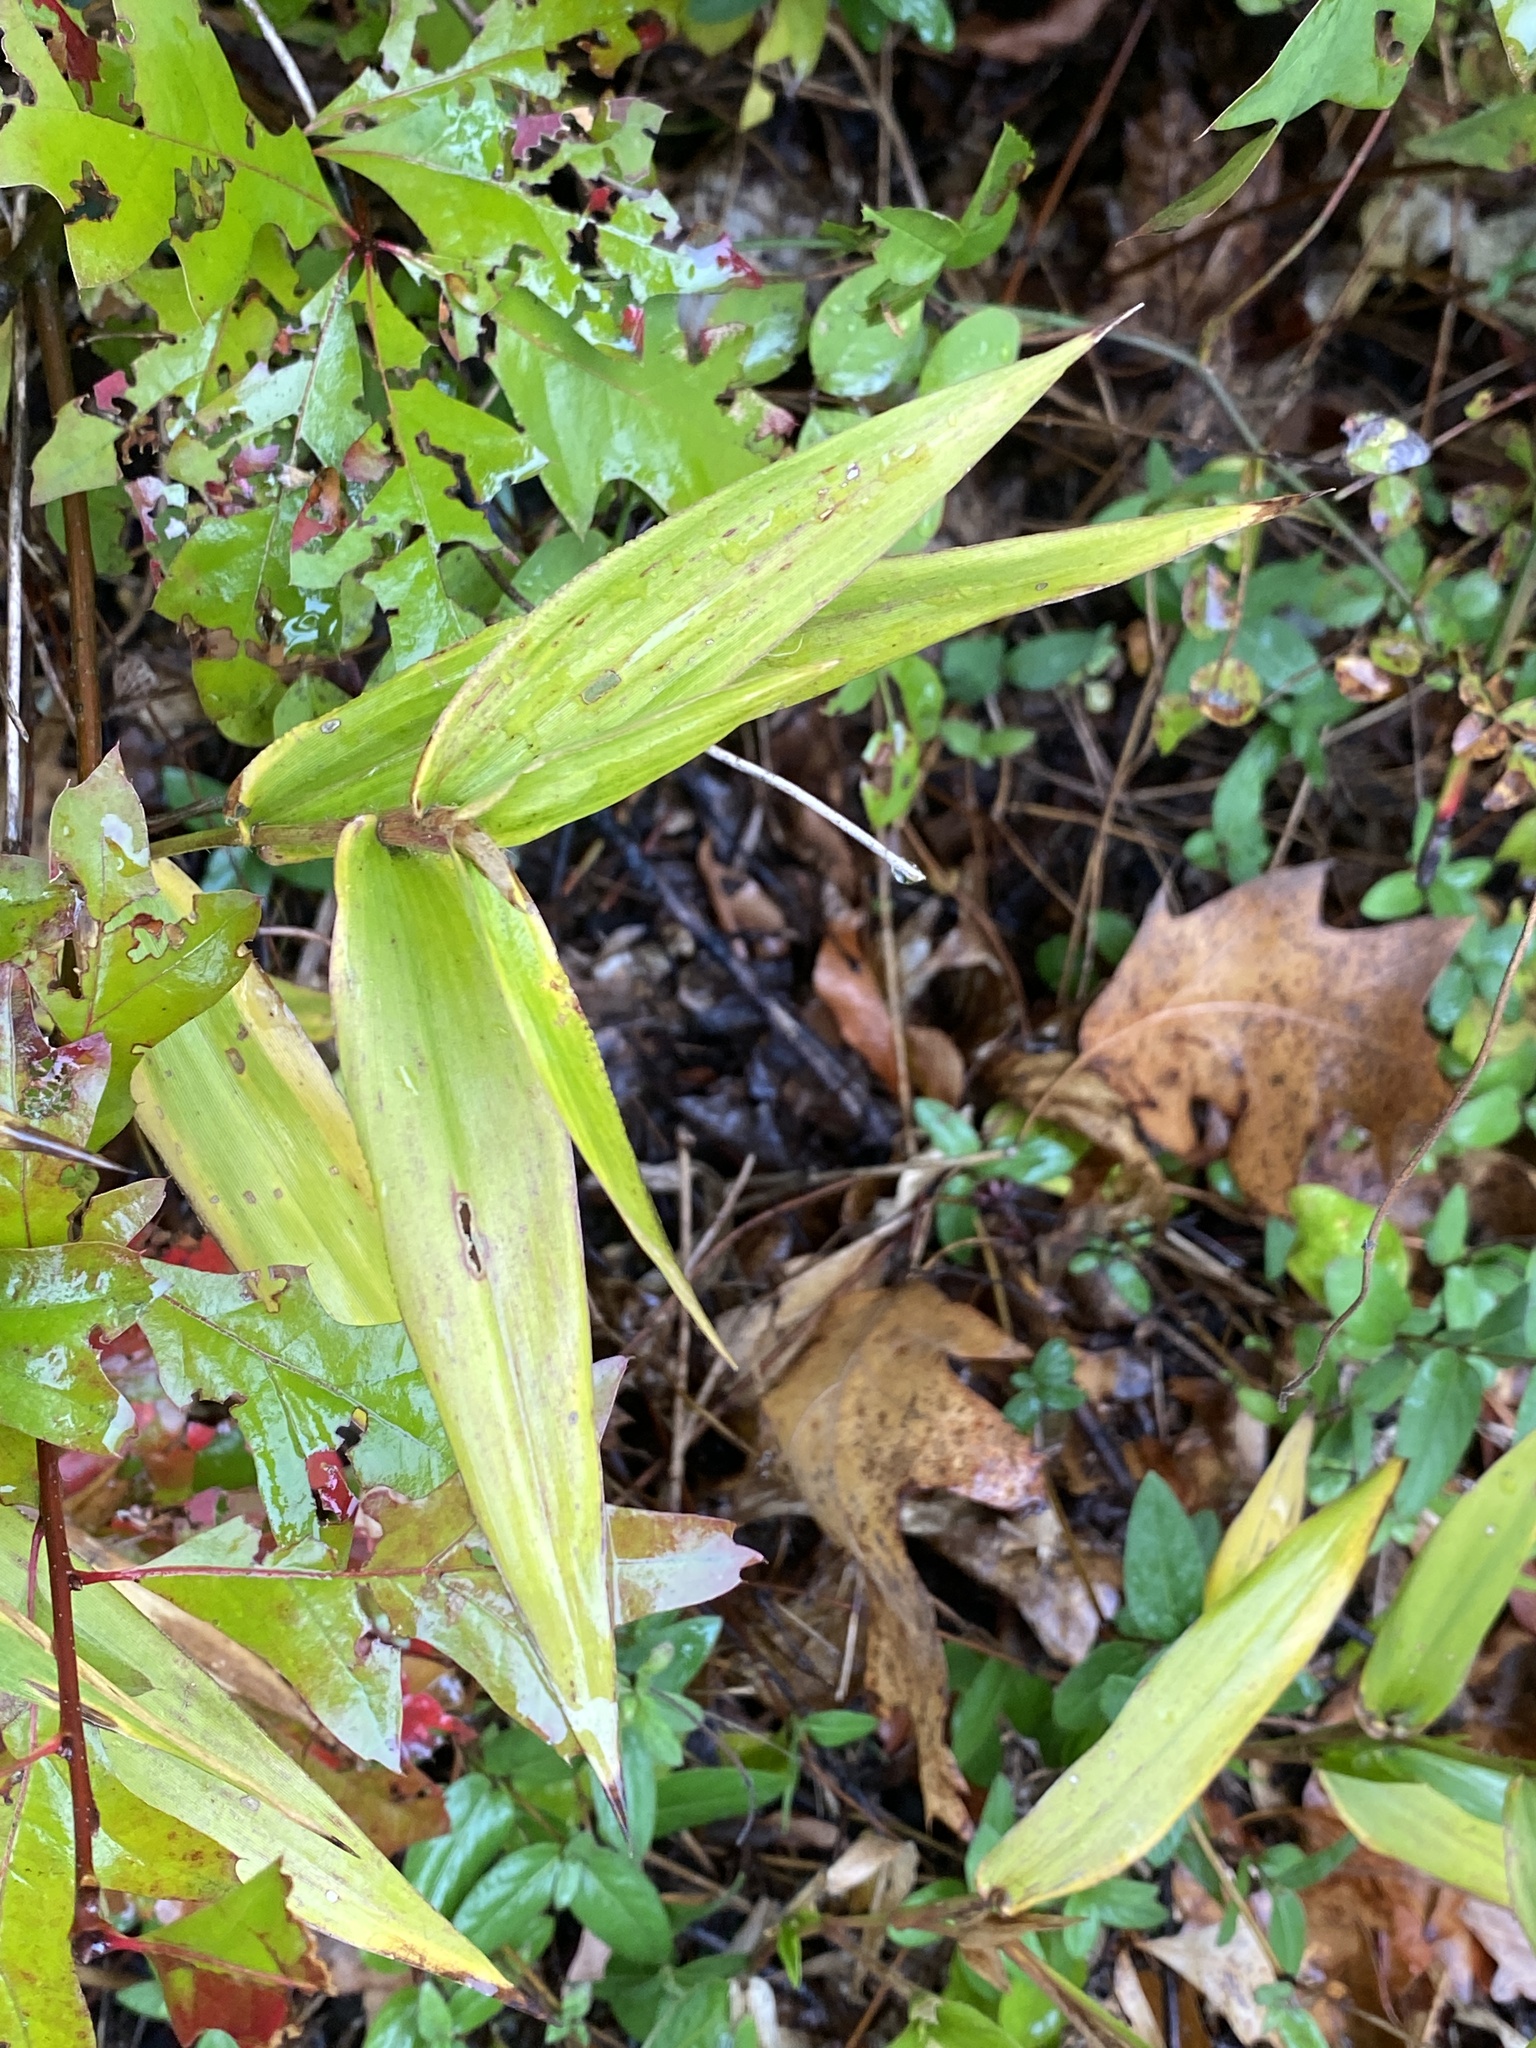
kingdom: Plantae
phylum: Tracheophyta
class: Liliopsida
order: Poales
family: Poaceae
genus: Dichanthelium
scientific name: Dichanthelium clandestinum
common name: Deer-tongue grass
